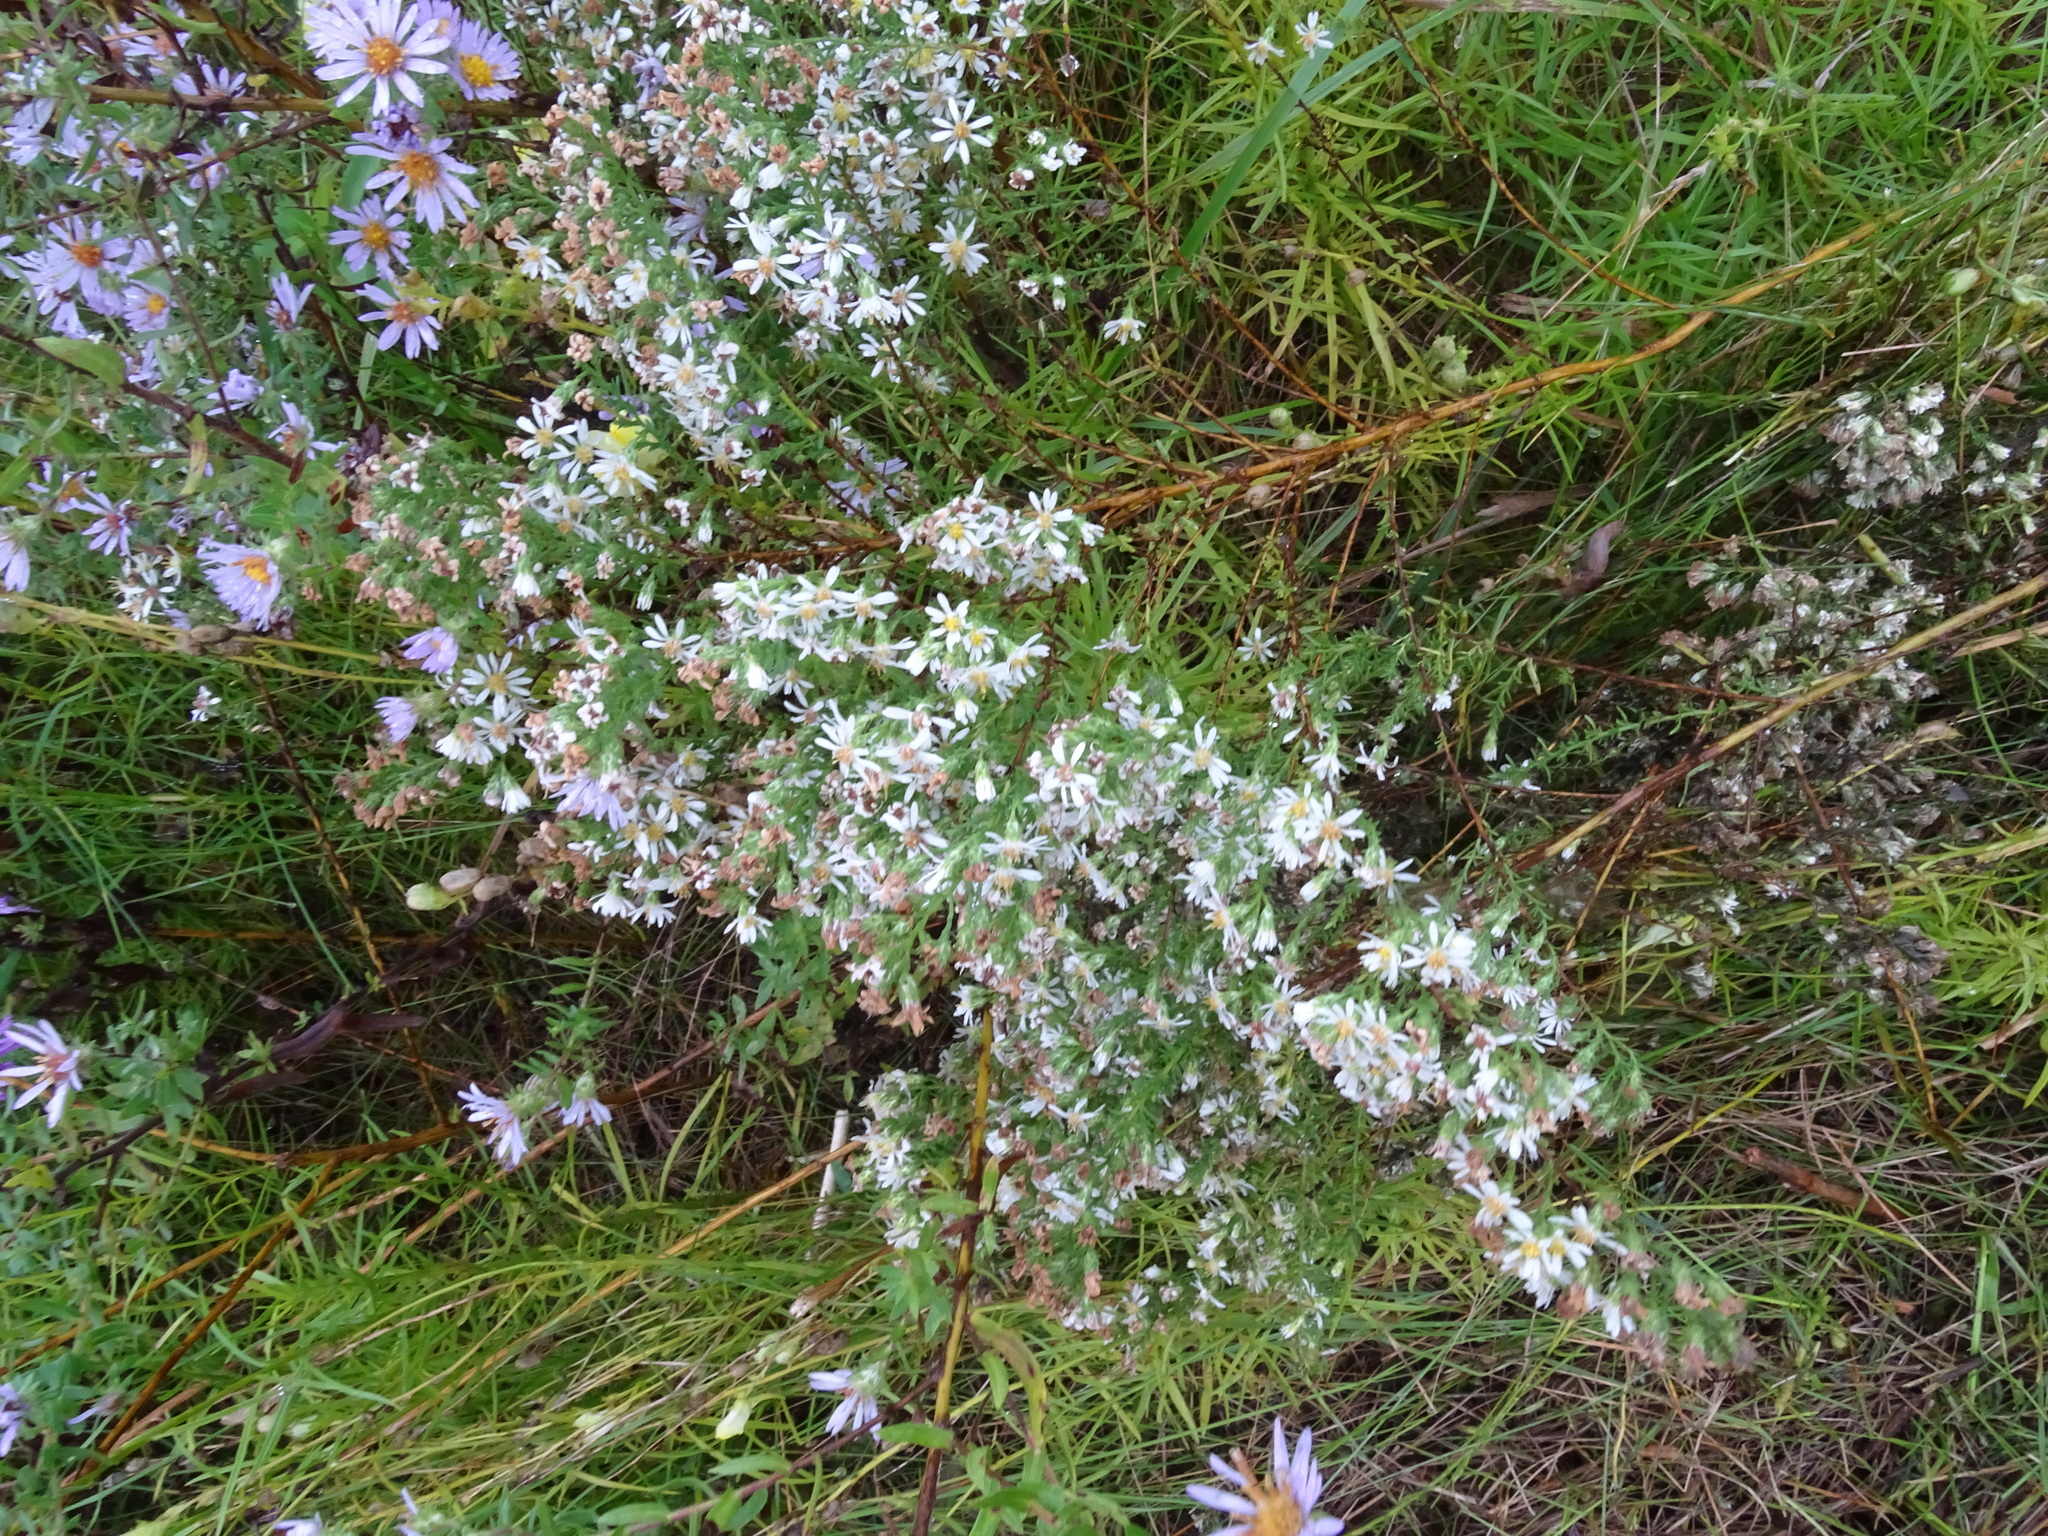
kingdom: Plantae
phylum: Tracheophyta
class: Magnoliopsida
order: Asterales
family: Asteraceae
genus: Symphyotrichum
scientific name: Symphyotrichum ericoides
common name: Heath aster
